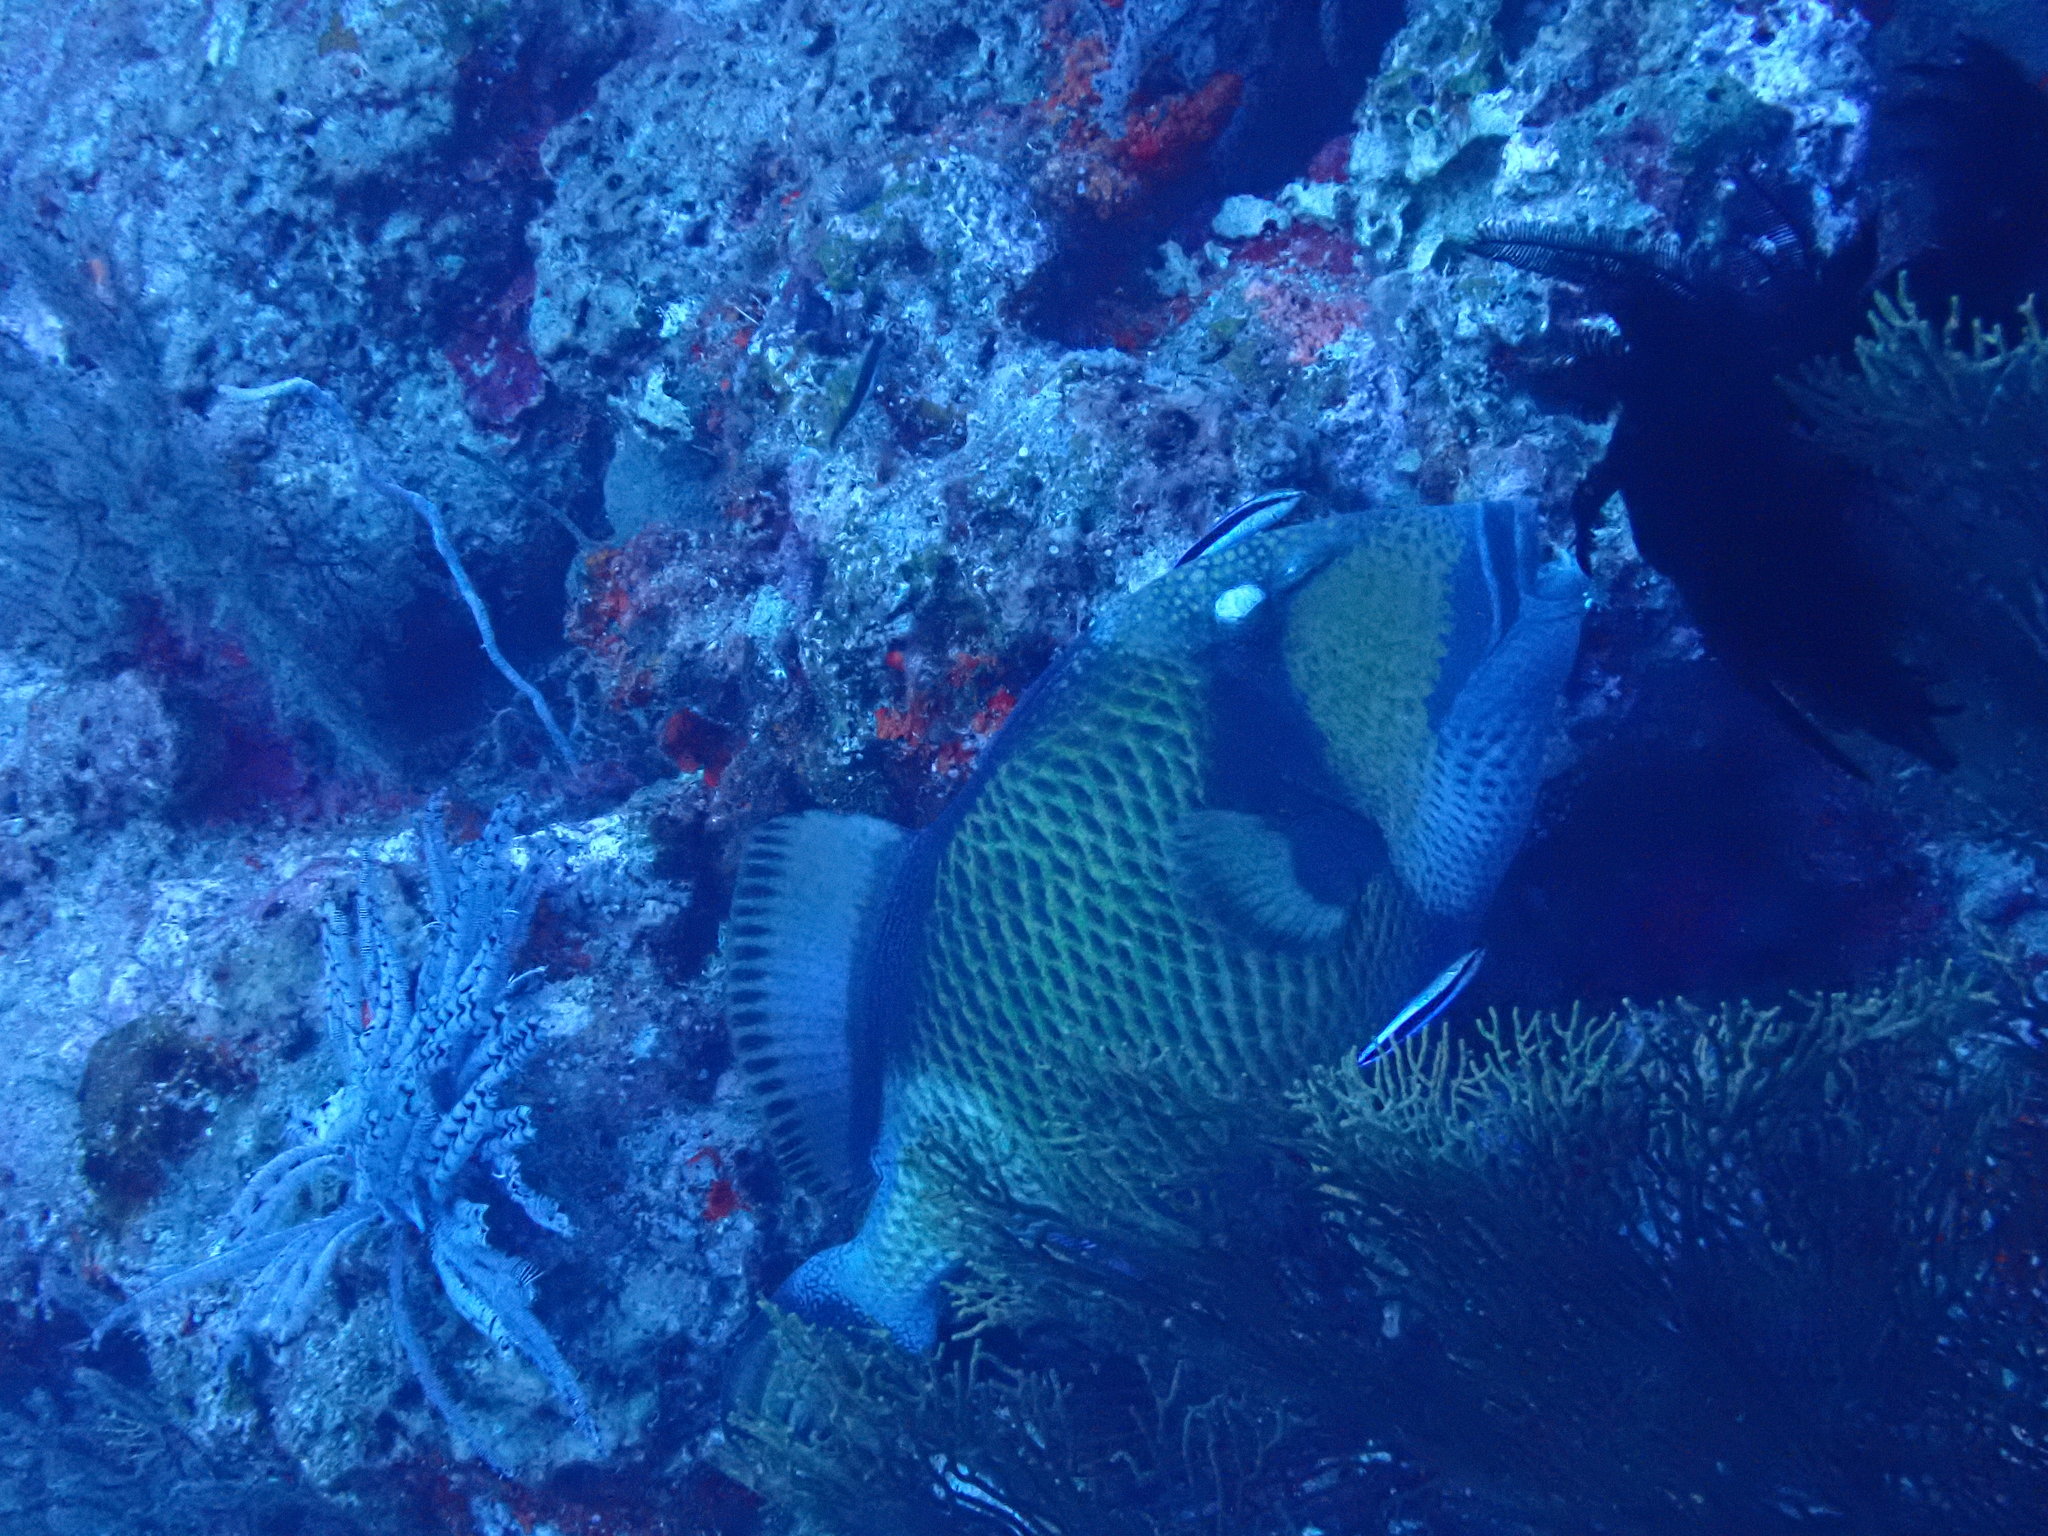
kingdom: Animalia
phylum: Chordata
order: Tetraodontiformes
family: Balistidae
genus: Balistoides
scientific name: Balistoides viridescens
